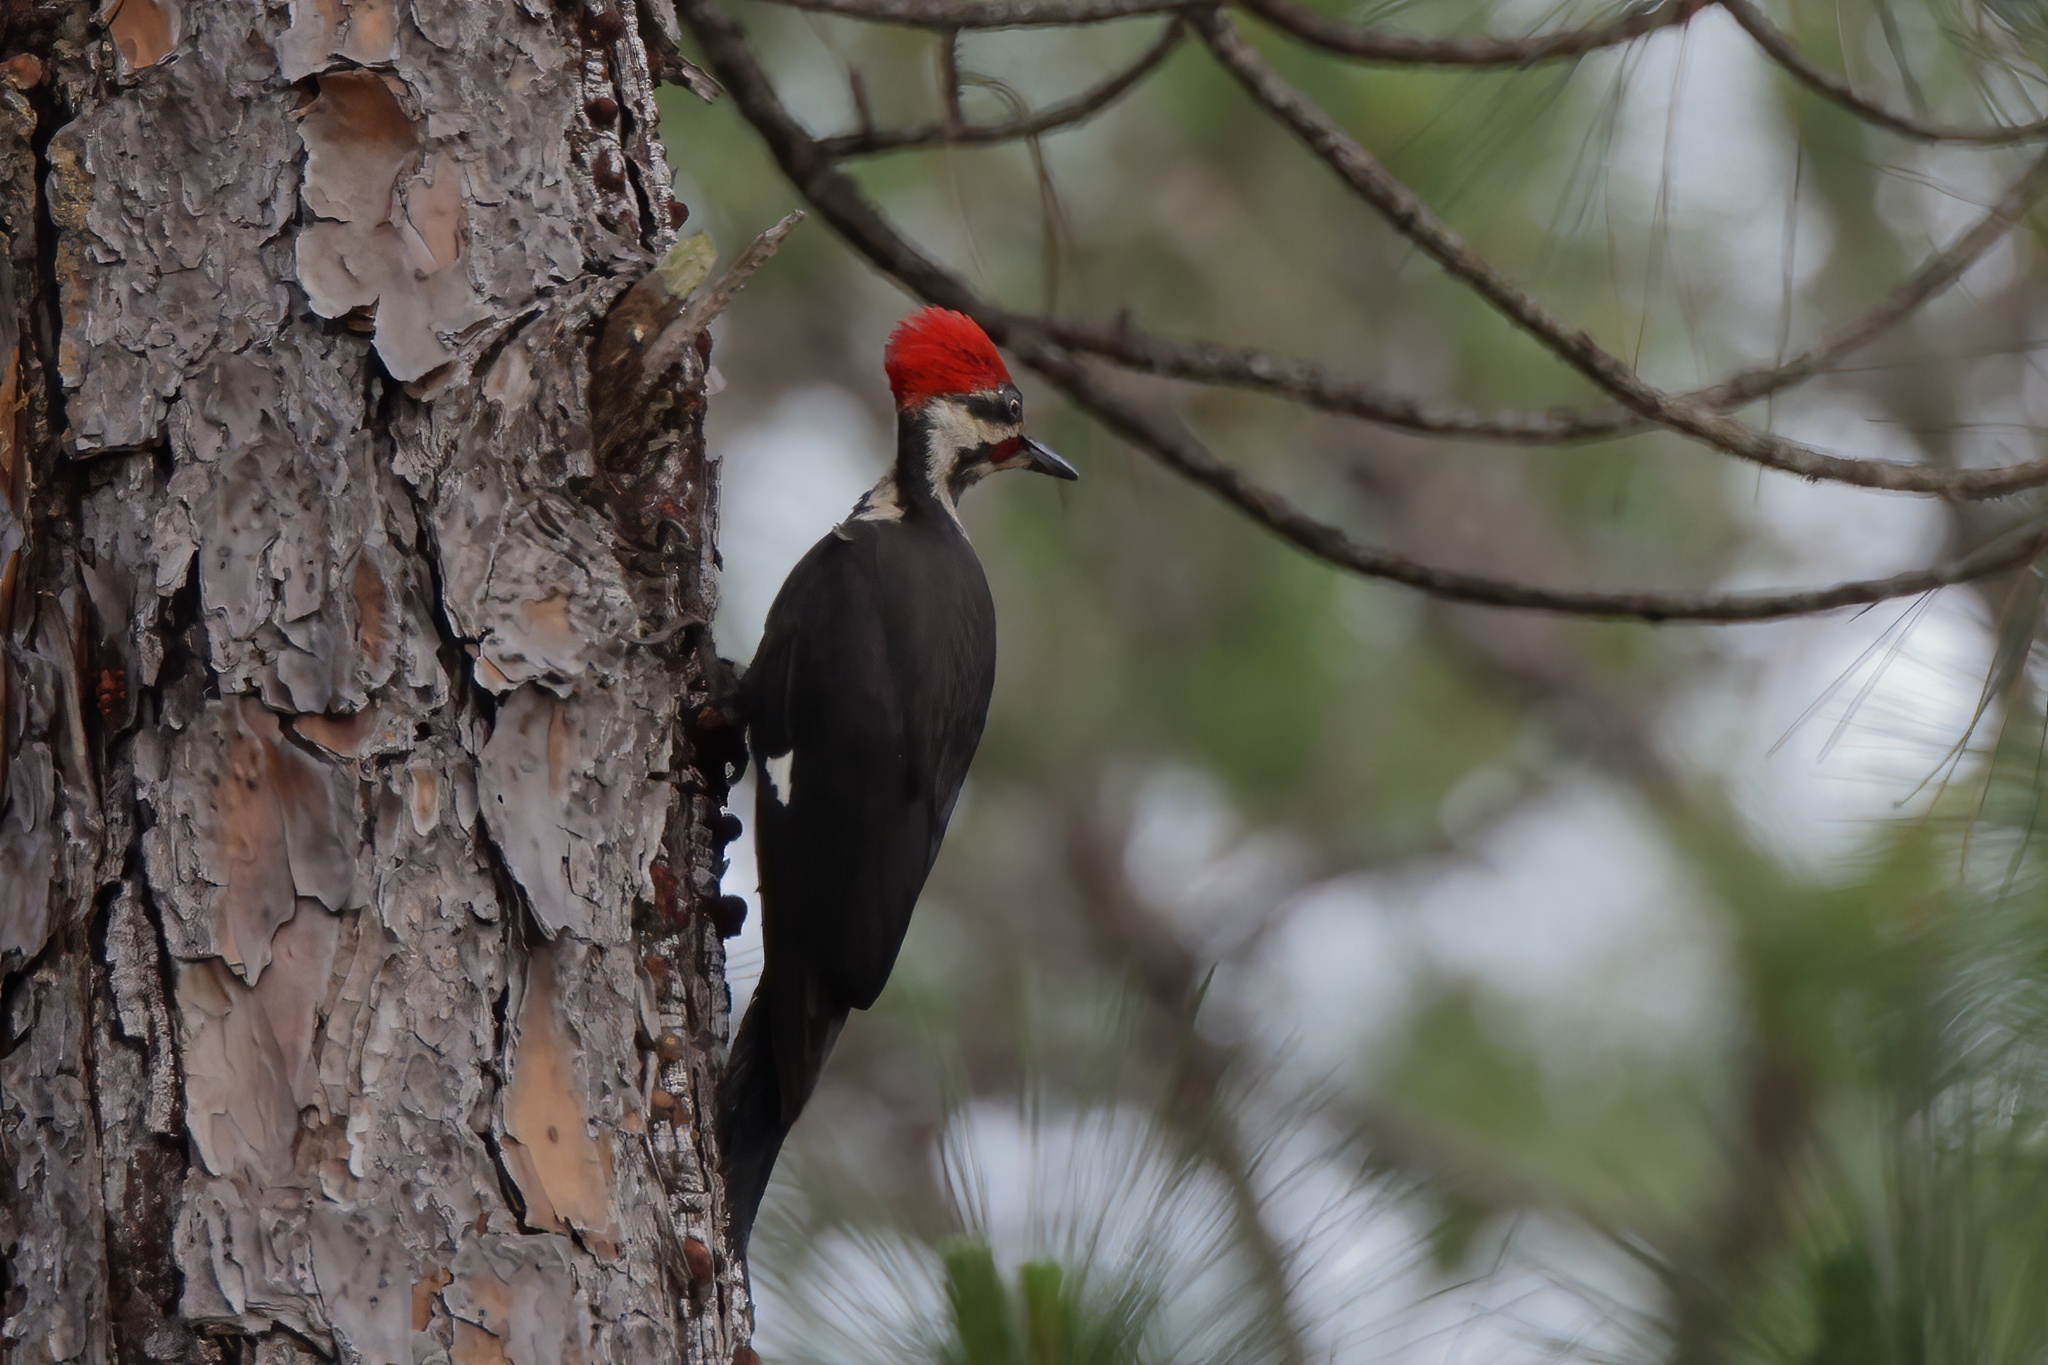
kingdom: Animalia
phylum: Chordata
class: Aves
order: Piciformes
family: Picidae
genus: Dryocopus
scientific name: Dryocopus pileatus
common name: Pileated woodpecker
